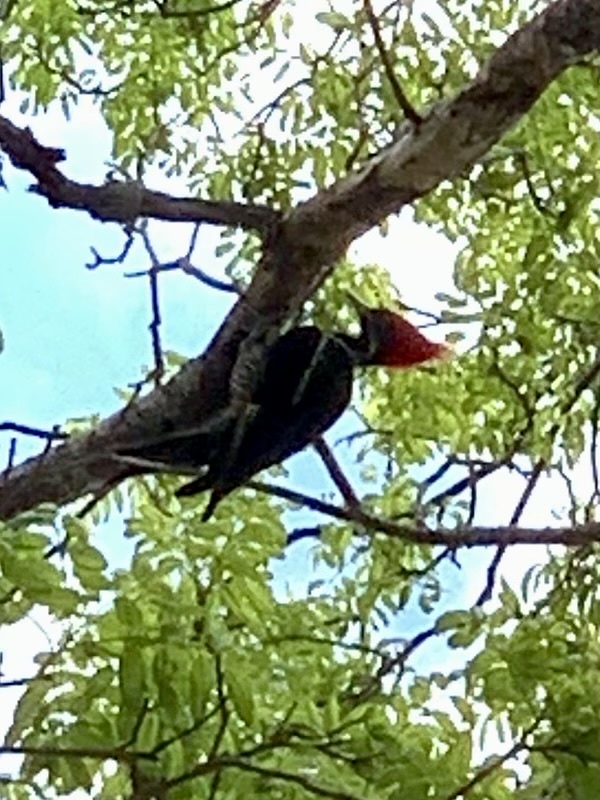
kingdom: Animalia
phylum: Chordata
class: Aves
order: Piciformes
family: Picidae
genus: Dryocopus
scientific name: Dryocopus lineatus
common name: Lineated woodpecker
